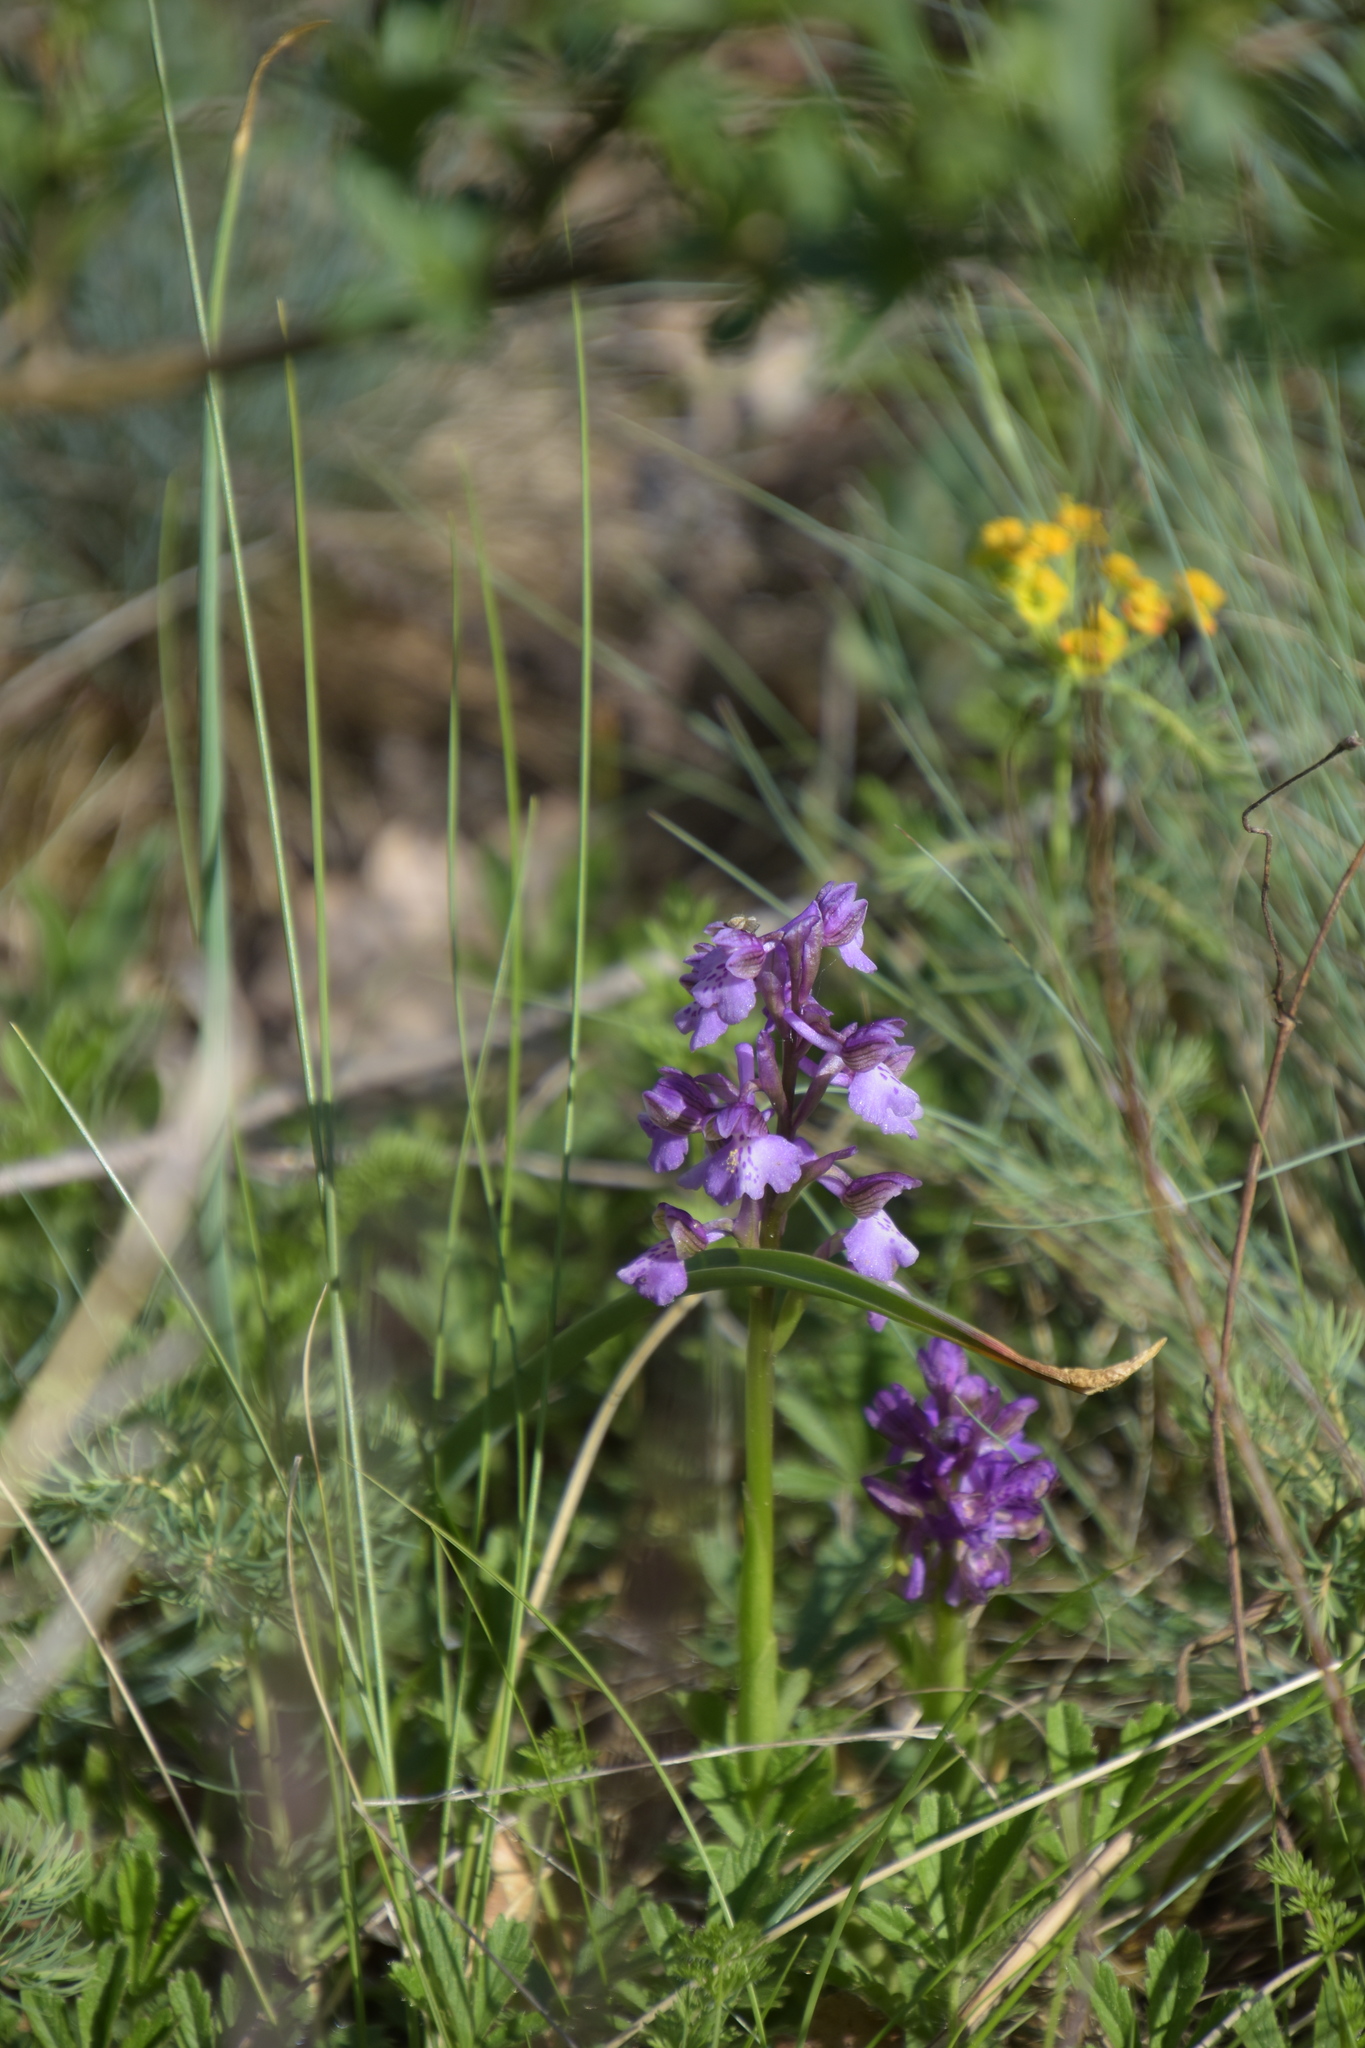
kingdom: Plantae
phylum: Tracheophyta
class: Liliopsida
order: Asparagales
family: Orchidaceae
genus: Anacamptis
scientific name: Anacamptis morio
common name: Green-winged orchid
